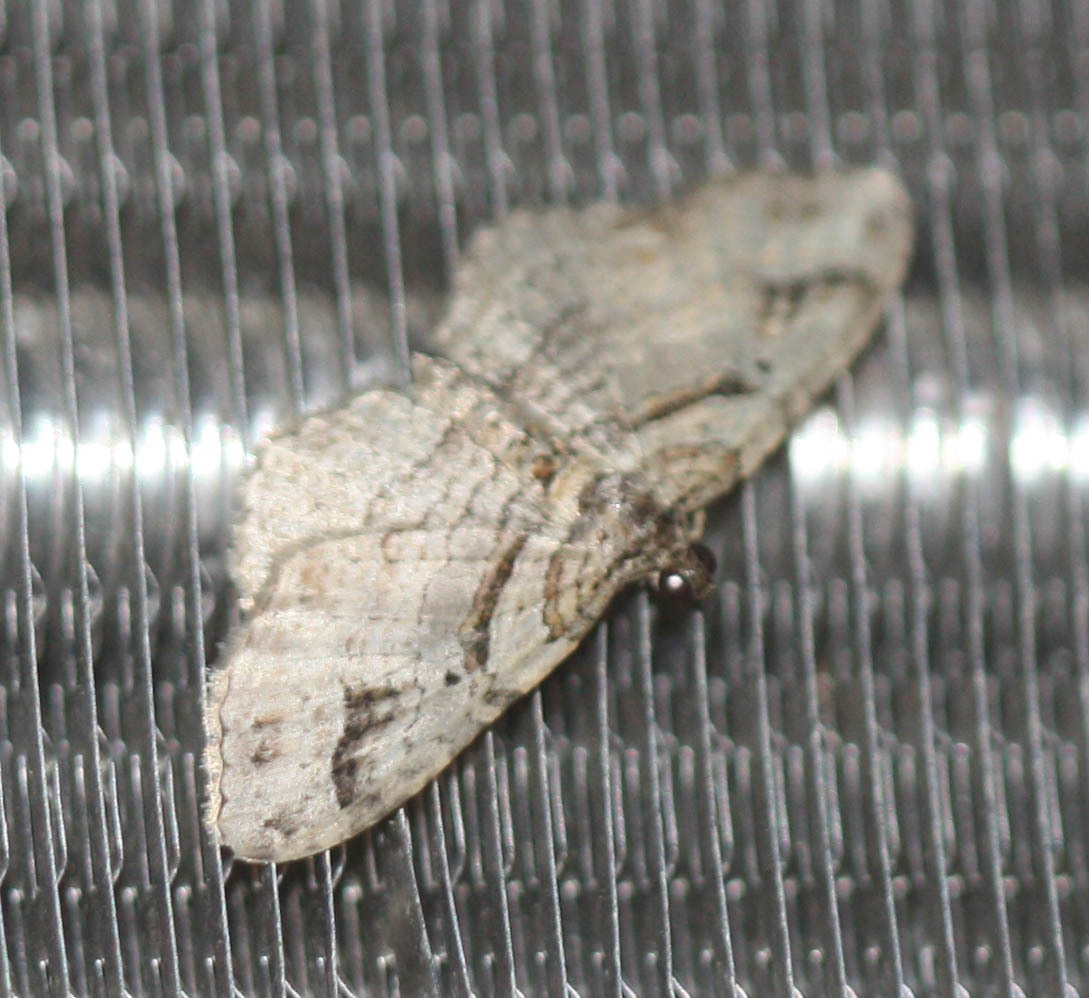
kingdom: Animalia
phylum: Arthropoda
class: Insecta
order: Lepidoptera
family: Geometridae
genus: Costaconvexa
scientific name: Costaconvexa centrostrigaria
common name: Bent-line carpet
